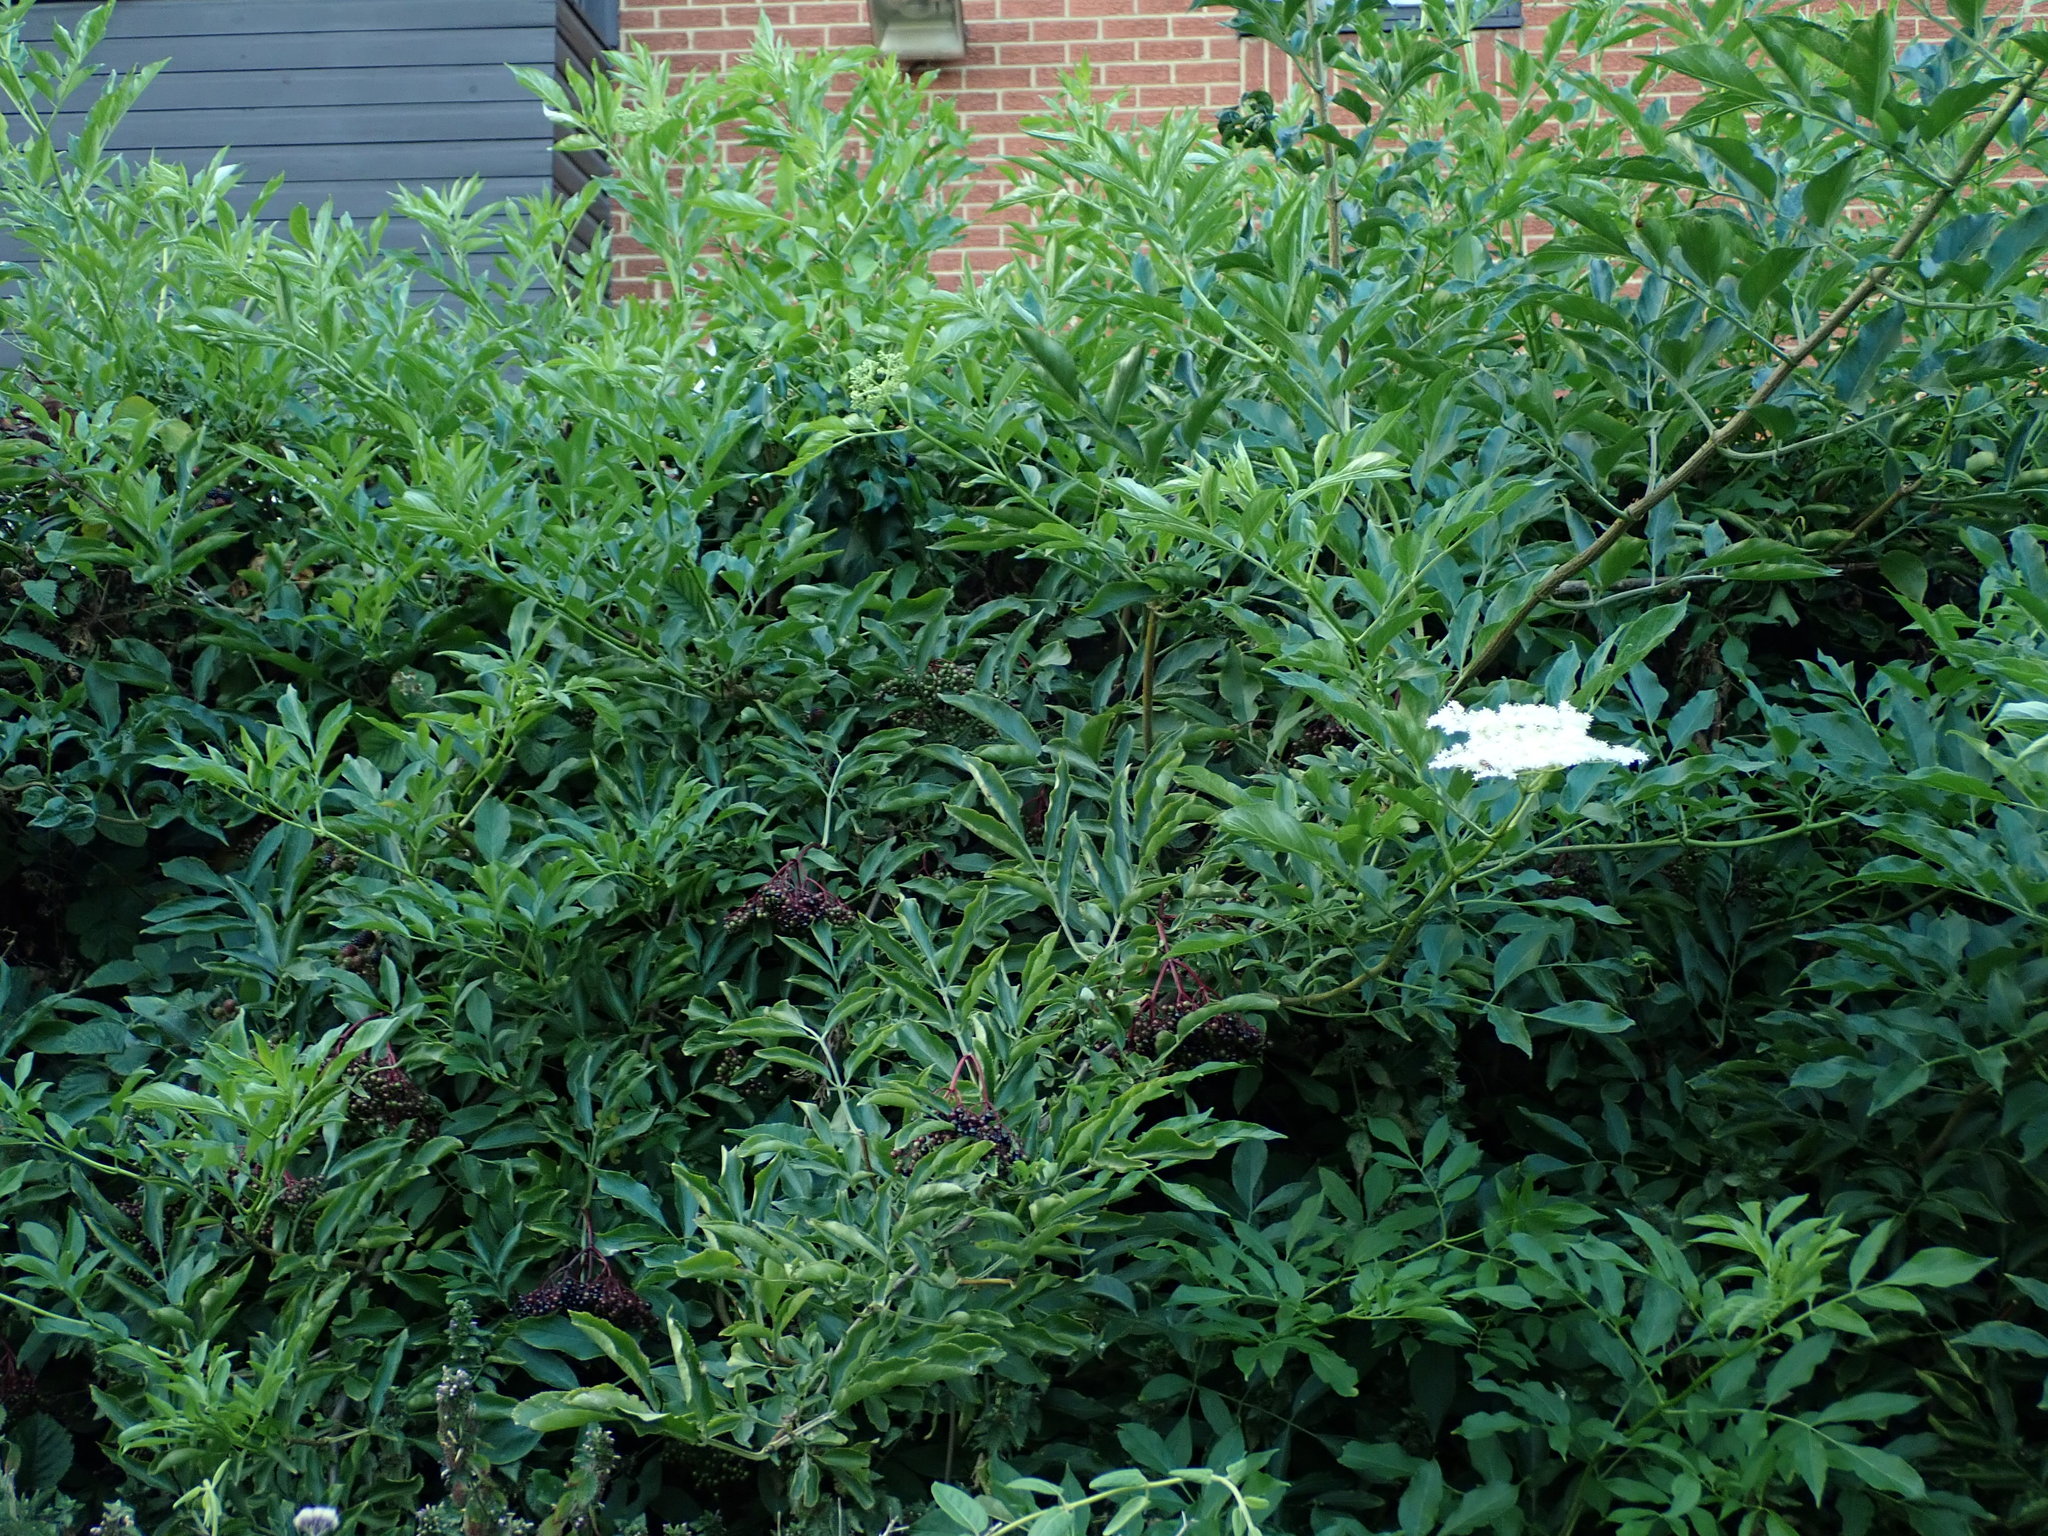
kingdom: Plantae
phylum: Tracheophyta
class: Magnoliopsida
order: Dipsacales
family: Viburnaceae
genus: Sambucus
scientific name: Sambucus nigra
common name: Elder
